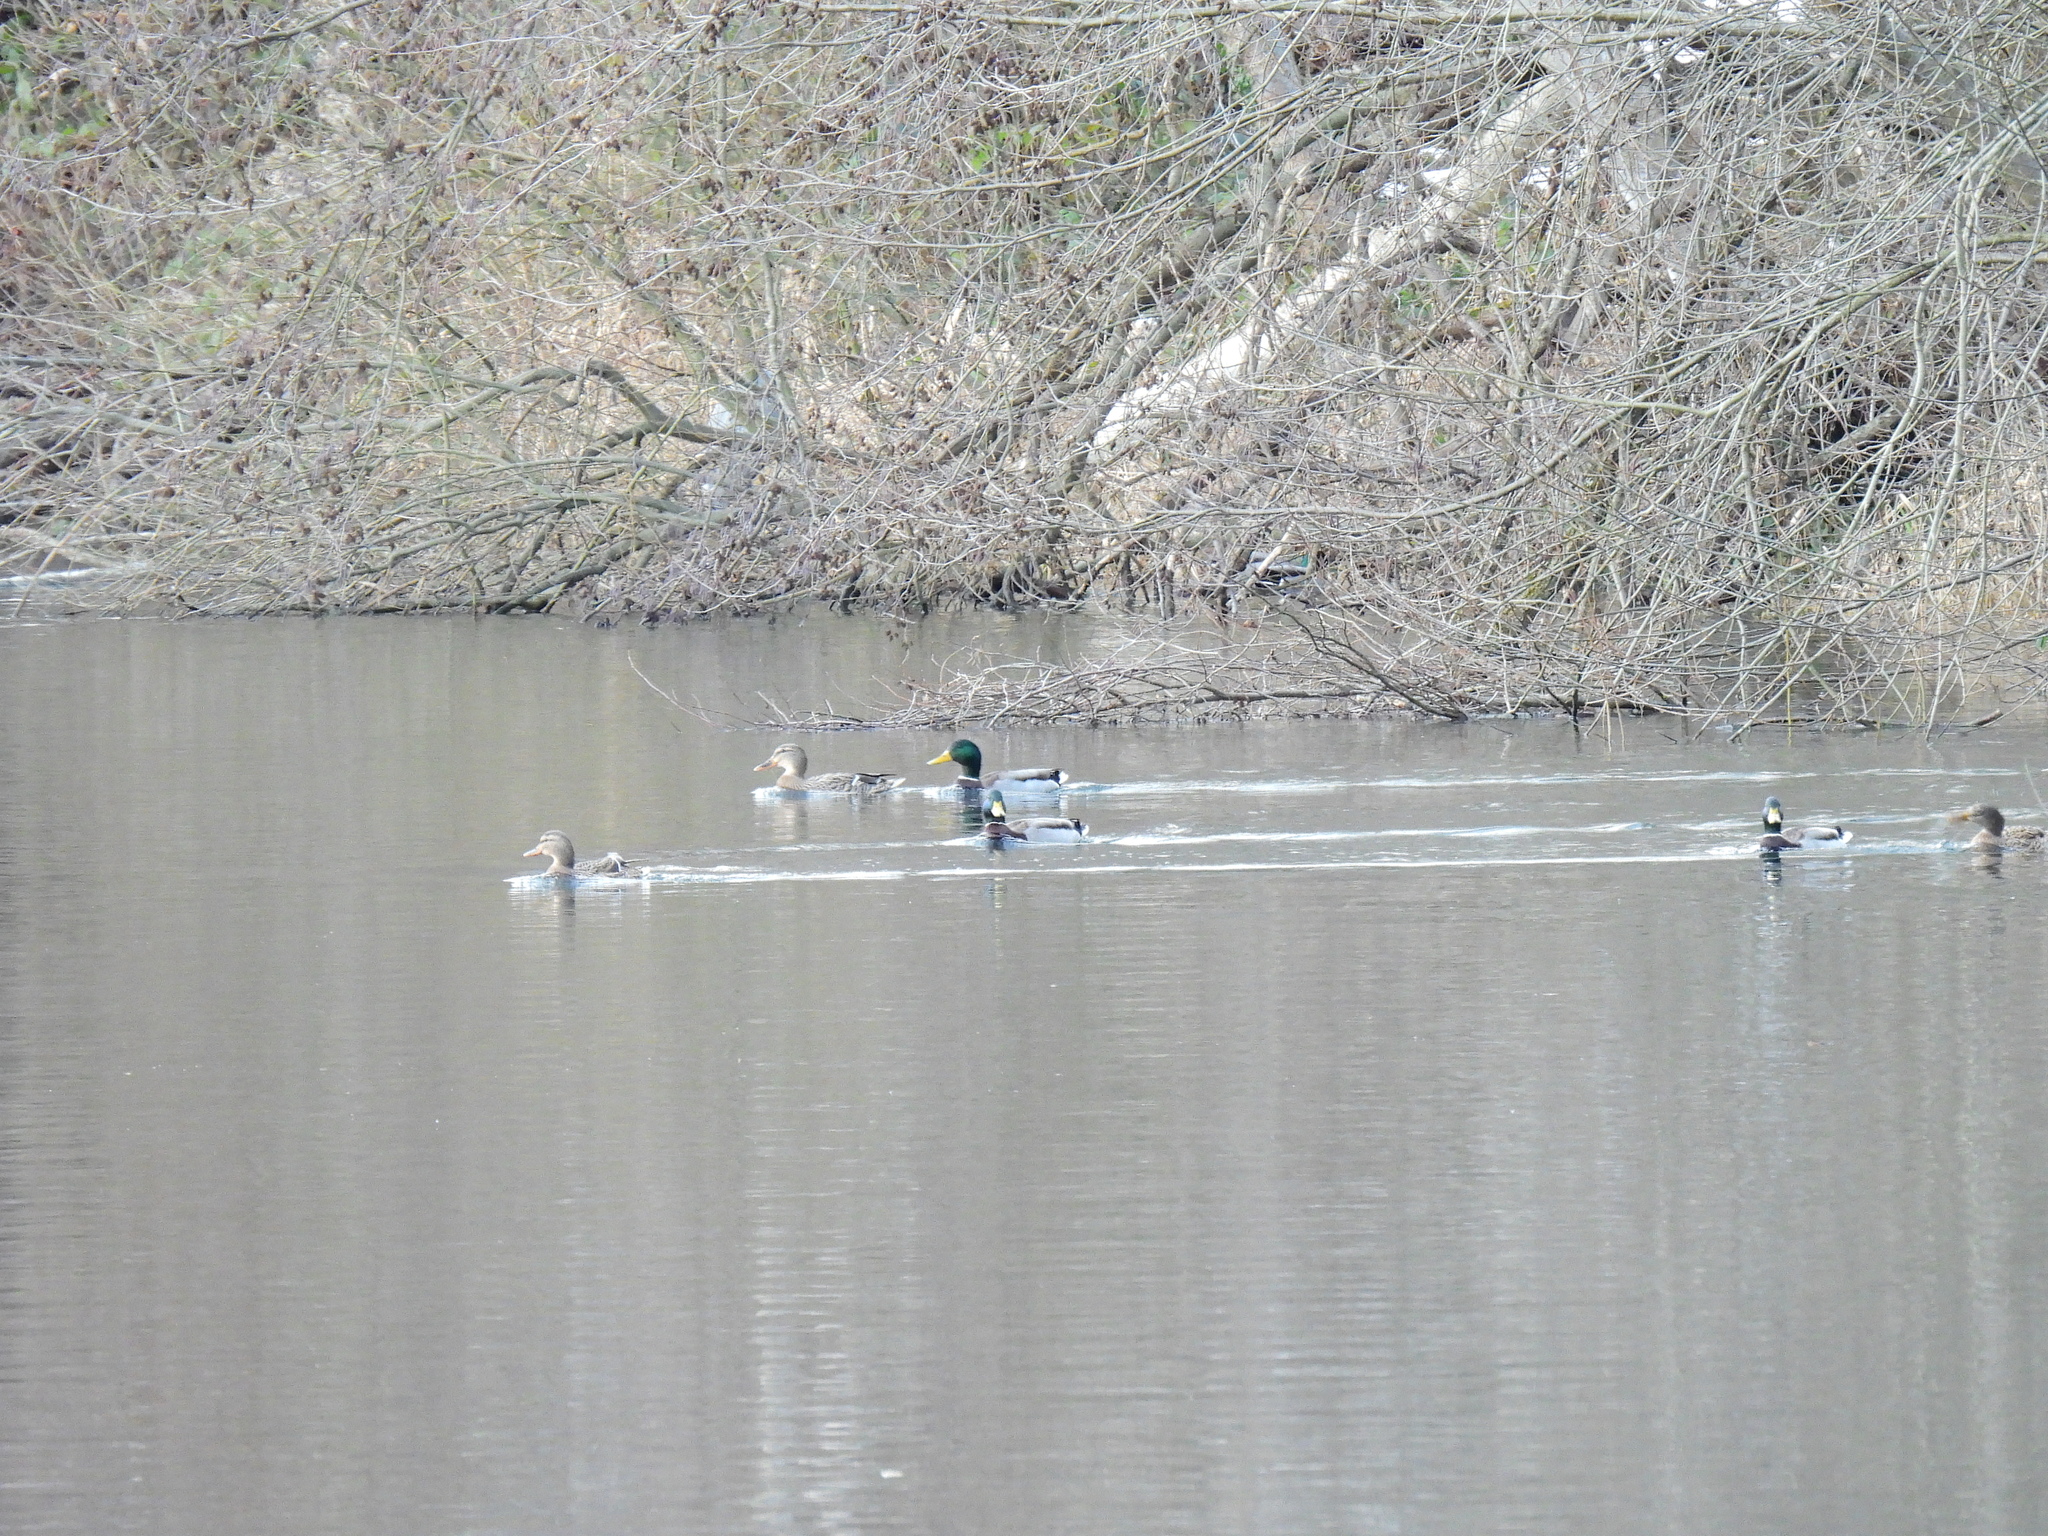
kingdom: Animalia
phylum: Chordata
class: Aves
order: Anseriformes
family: Anatidae
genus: Anas
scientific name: Anas platyrhynchos
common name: Mallard
